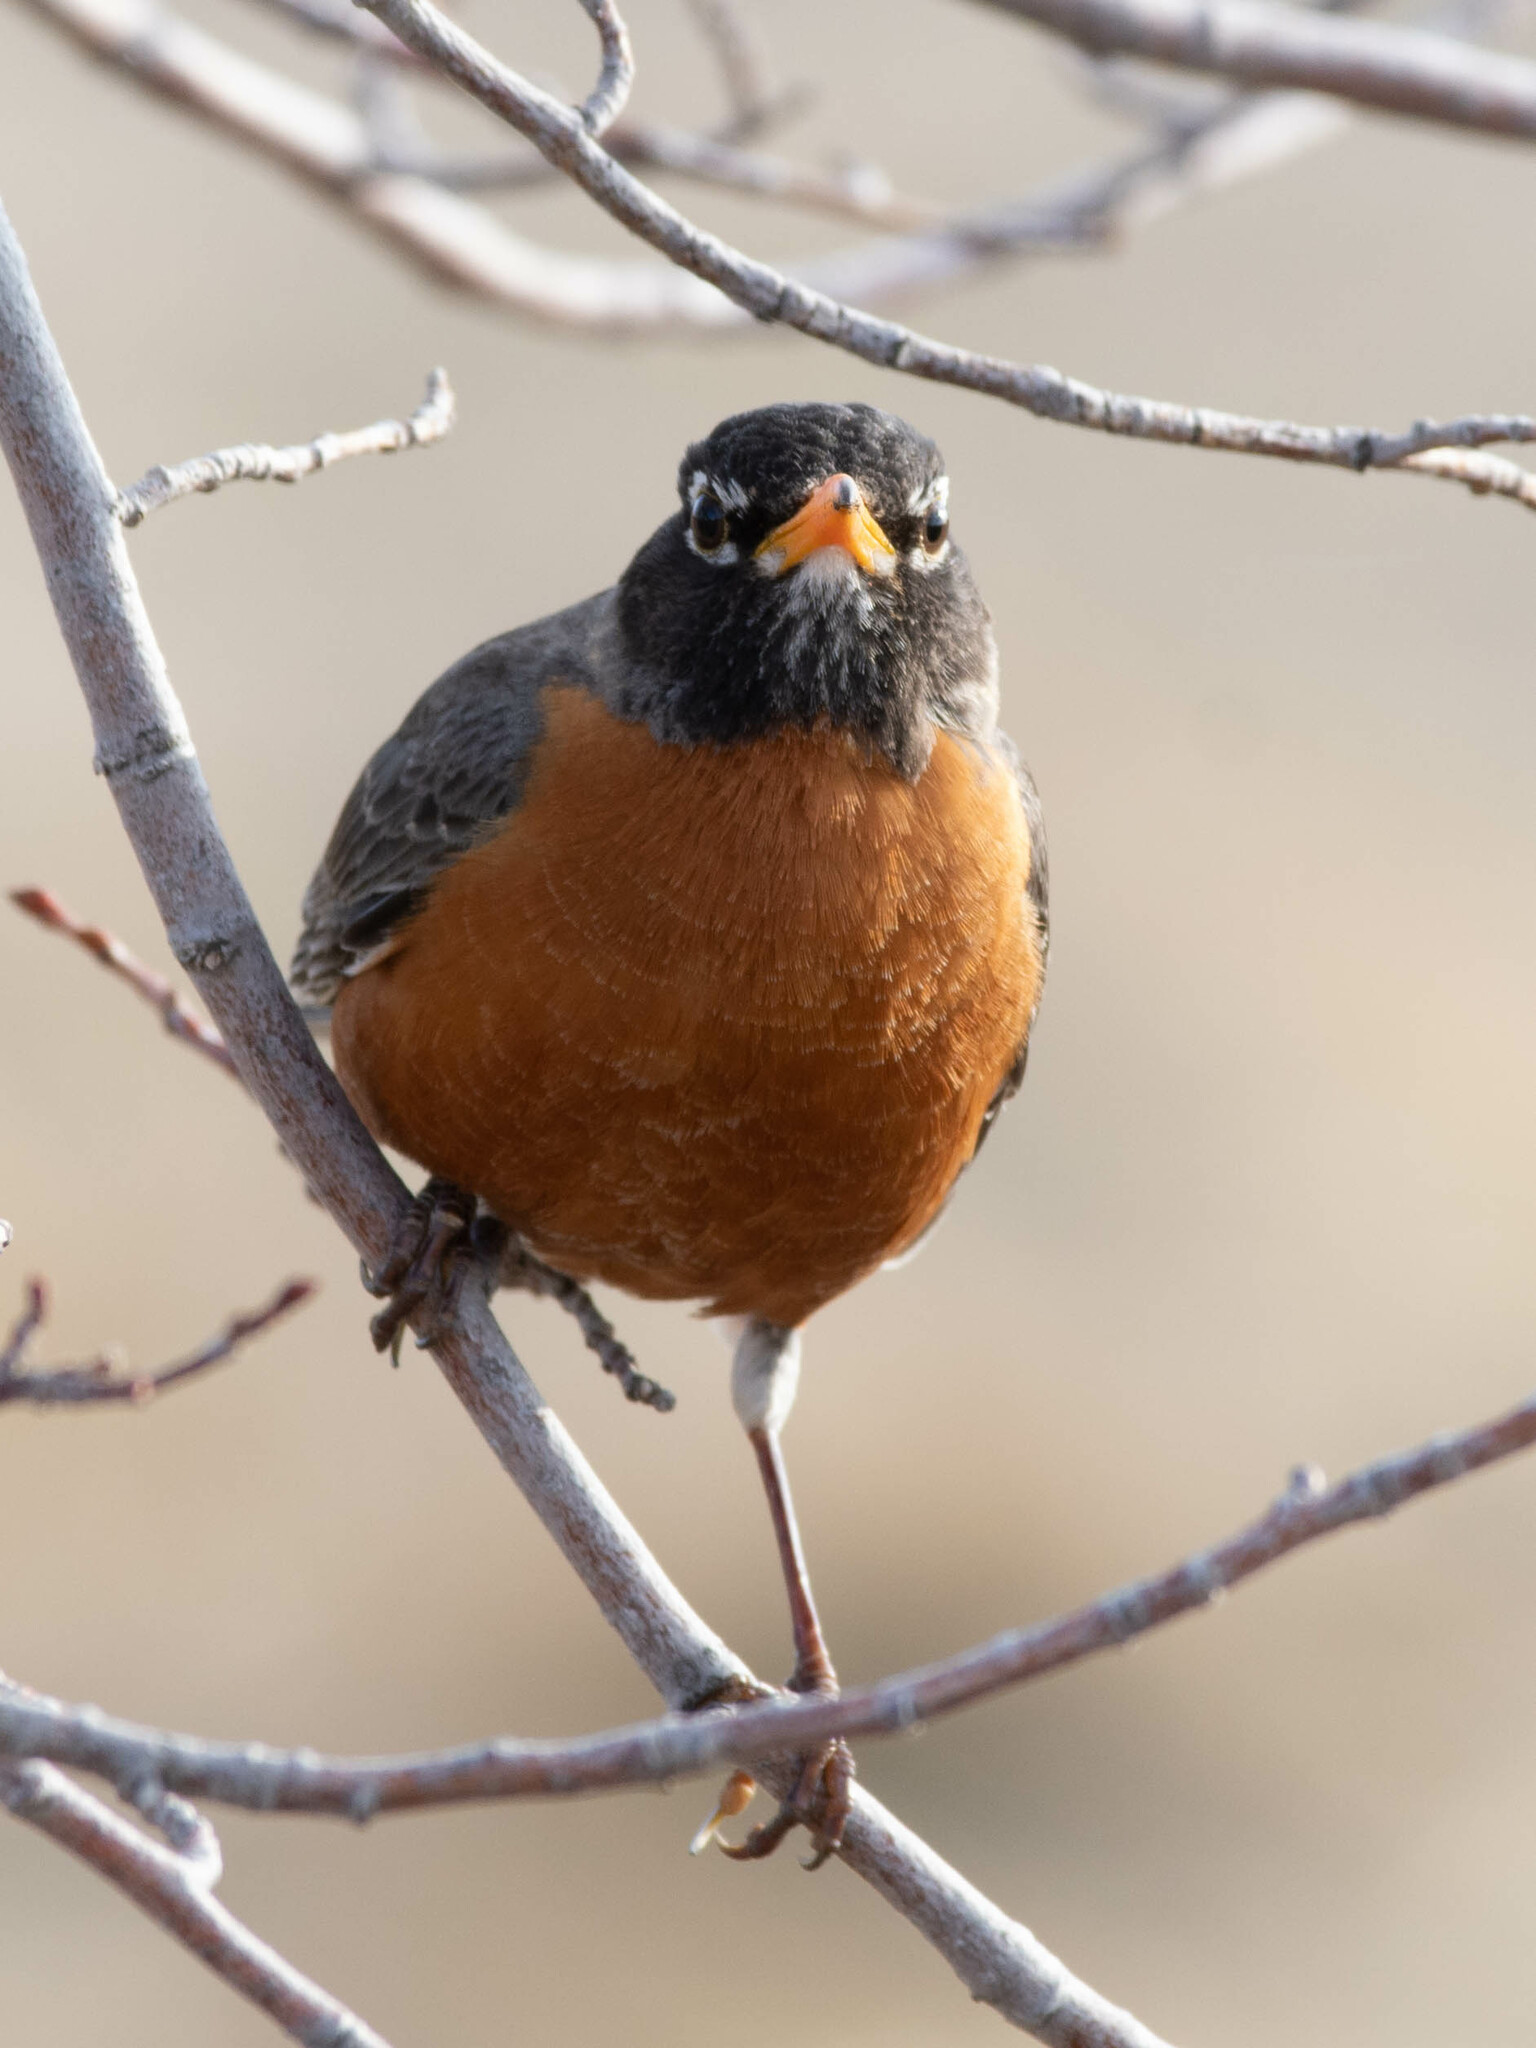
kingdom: Animalia
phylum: Chordata
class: Aves
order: Passeriformes
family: Turdidae
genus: Turdus
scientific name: Turdus migratorius
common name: American robin
